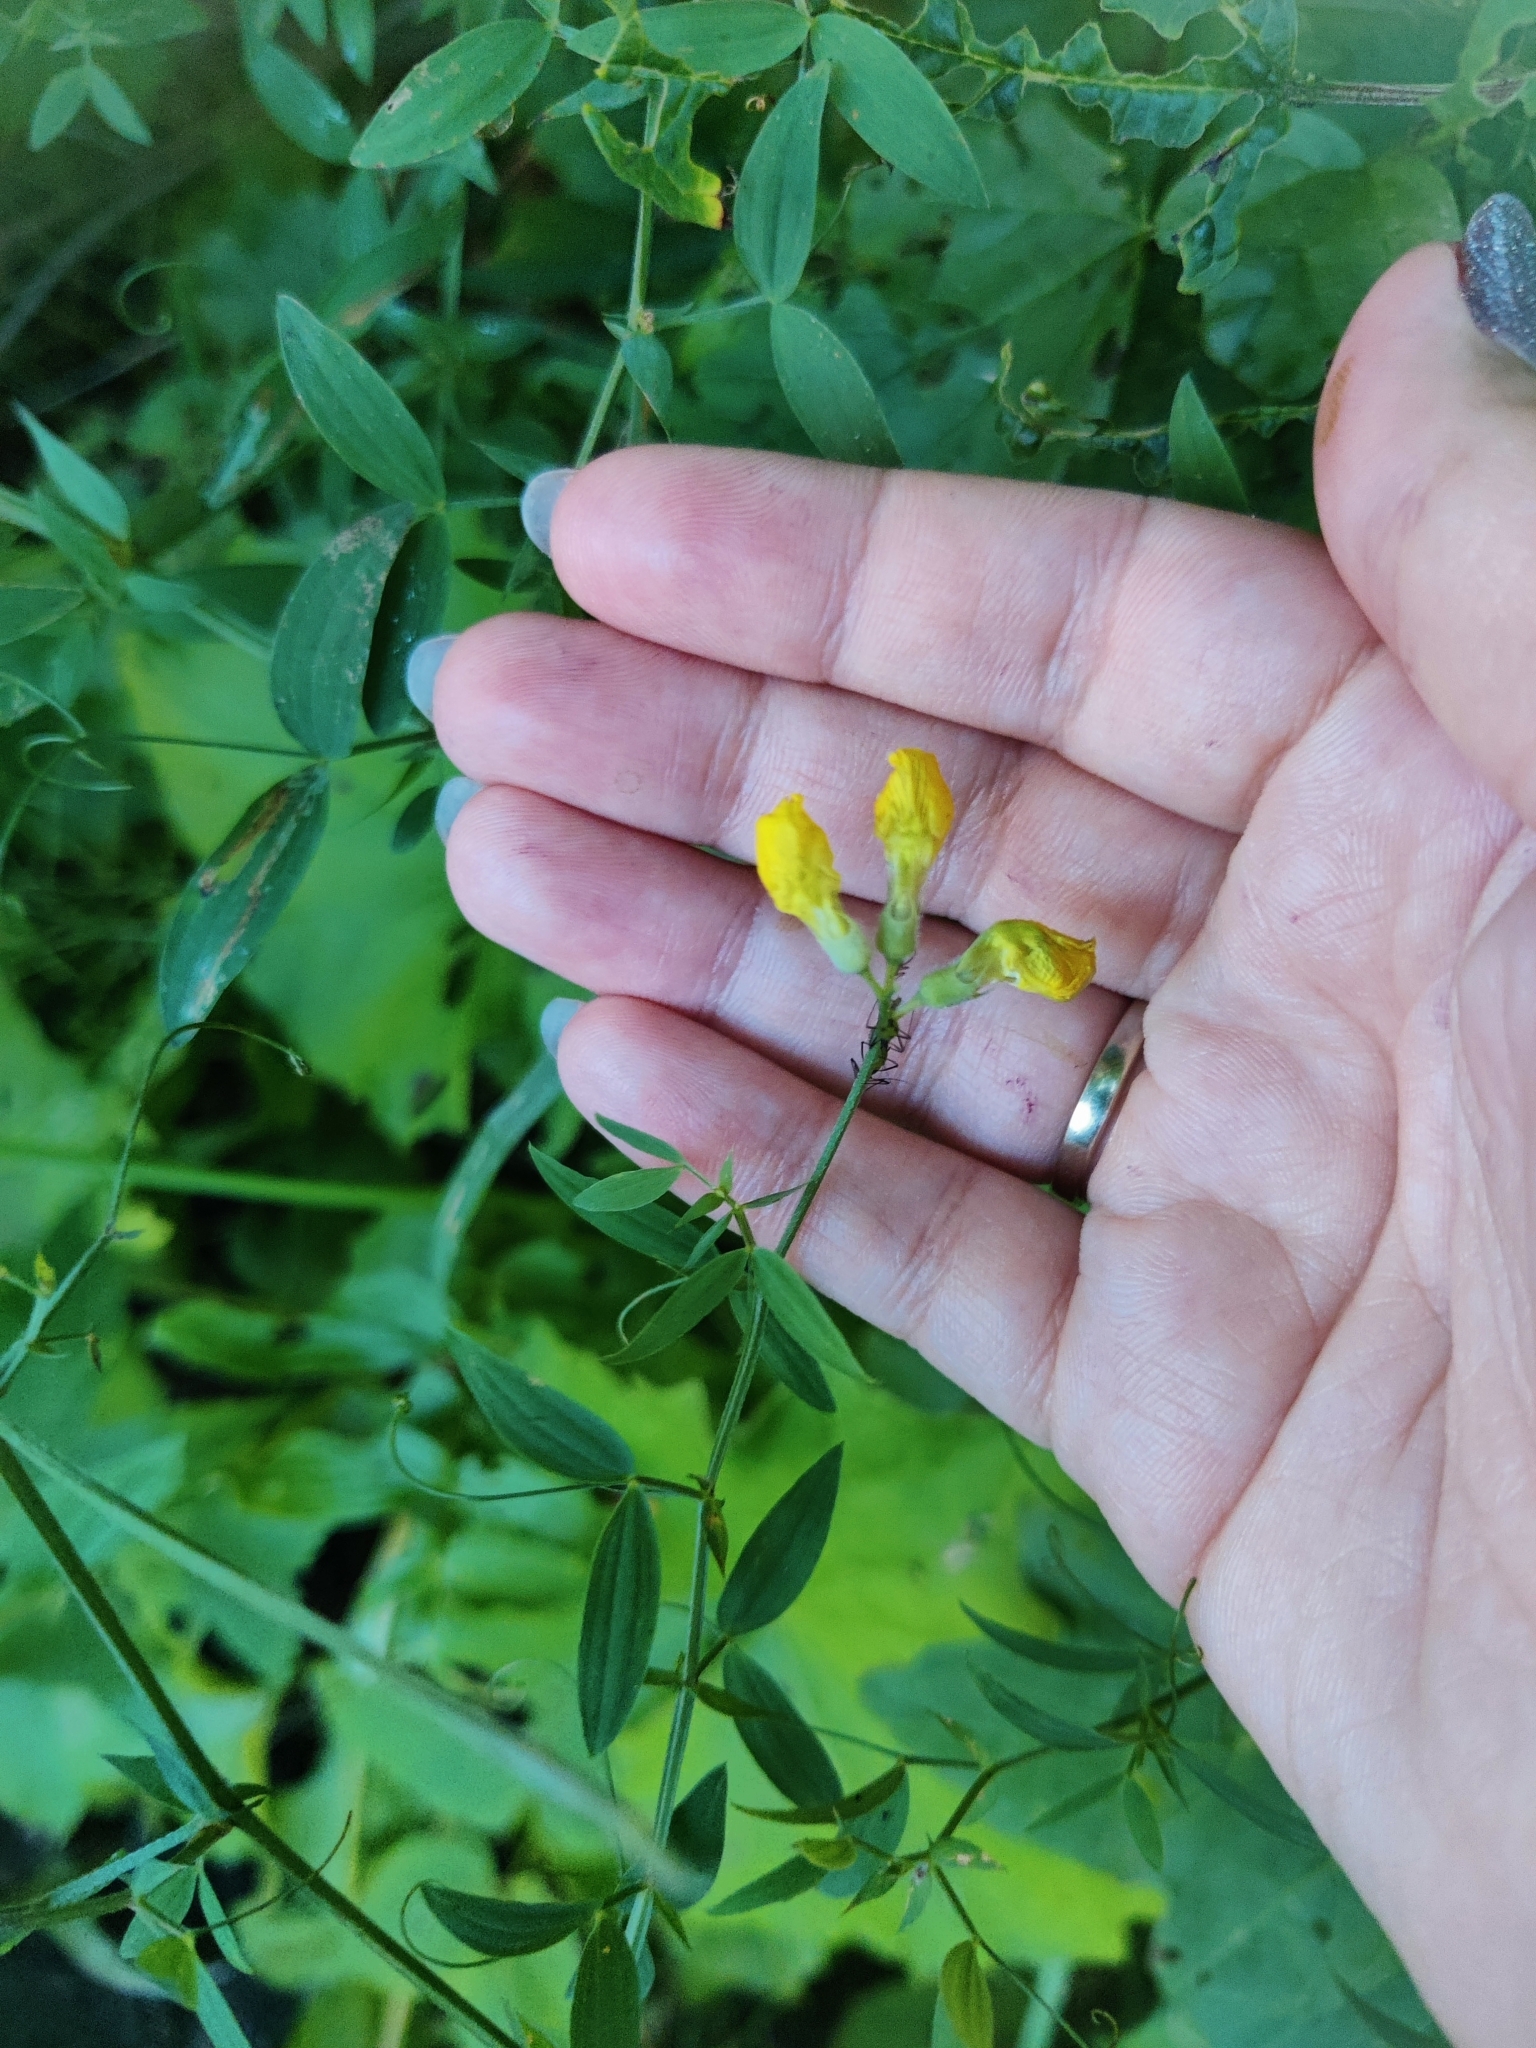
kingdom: Plantae
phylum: Tracheophyta
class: Magnoliopsida
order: Fabales
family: Fabaceae
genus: Lathyrus
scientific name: Lathyrus pratensis
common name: Meadow vetchling
